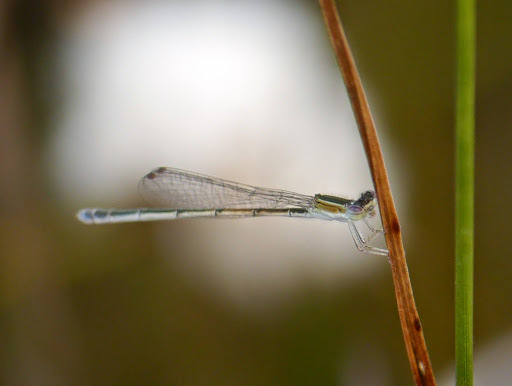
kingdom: Animalia
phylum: Arthropoda
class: Insecta
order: Odonata
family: Coenagrionidae
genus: Ischnura
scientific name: Ischnura hastata
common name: Citrine forktail
